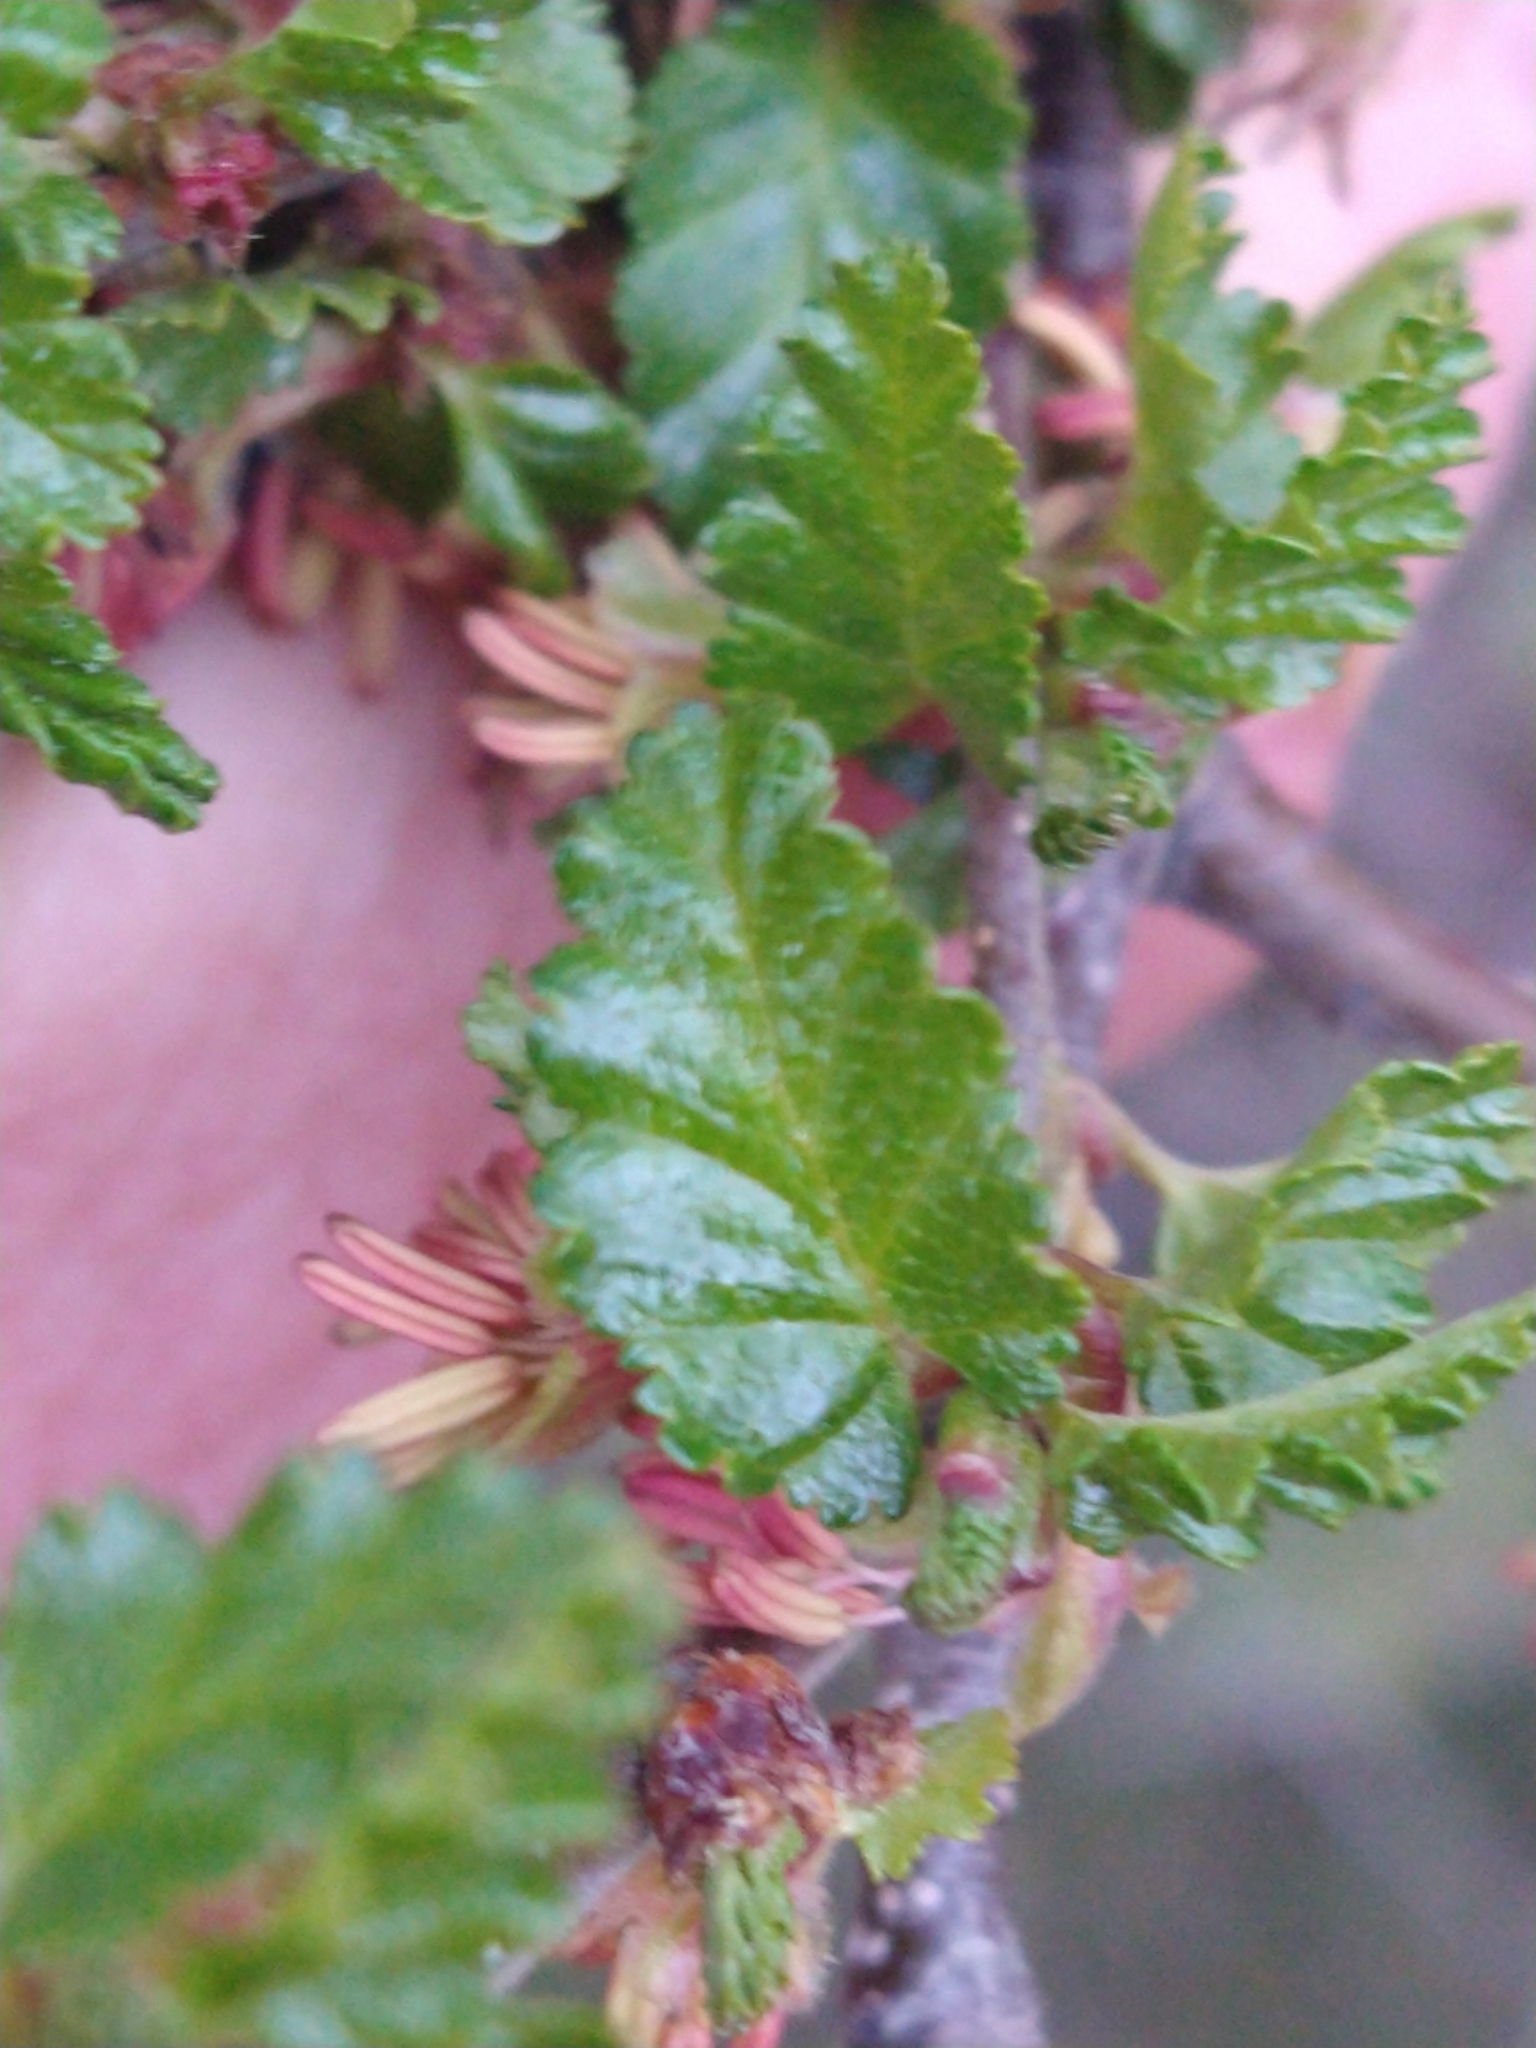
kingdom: Plantae
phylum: Tracheophyta
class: Magnoliopsida
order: Fagales
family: Nothofagaceae
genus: Nothofagus
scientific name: Nothofagus pumilio
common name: Lenga beech
